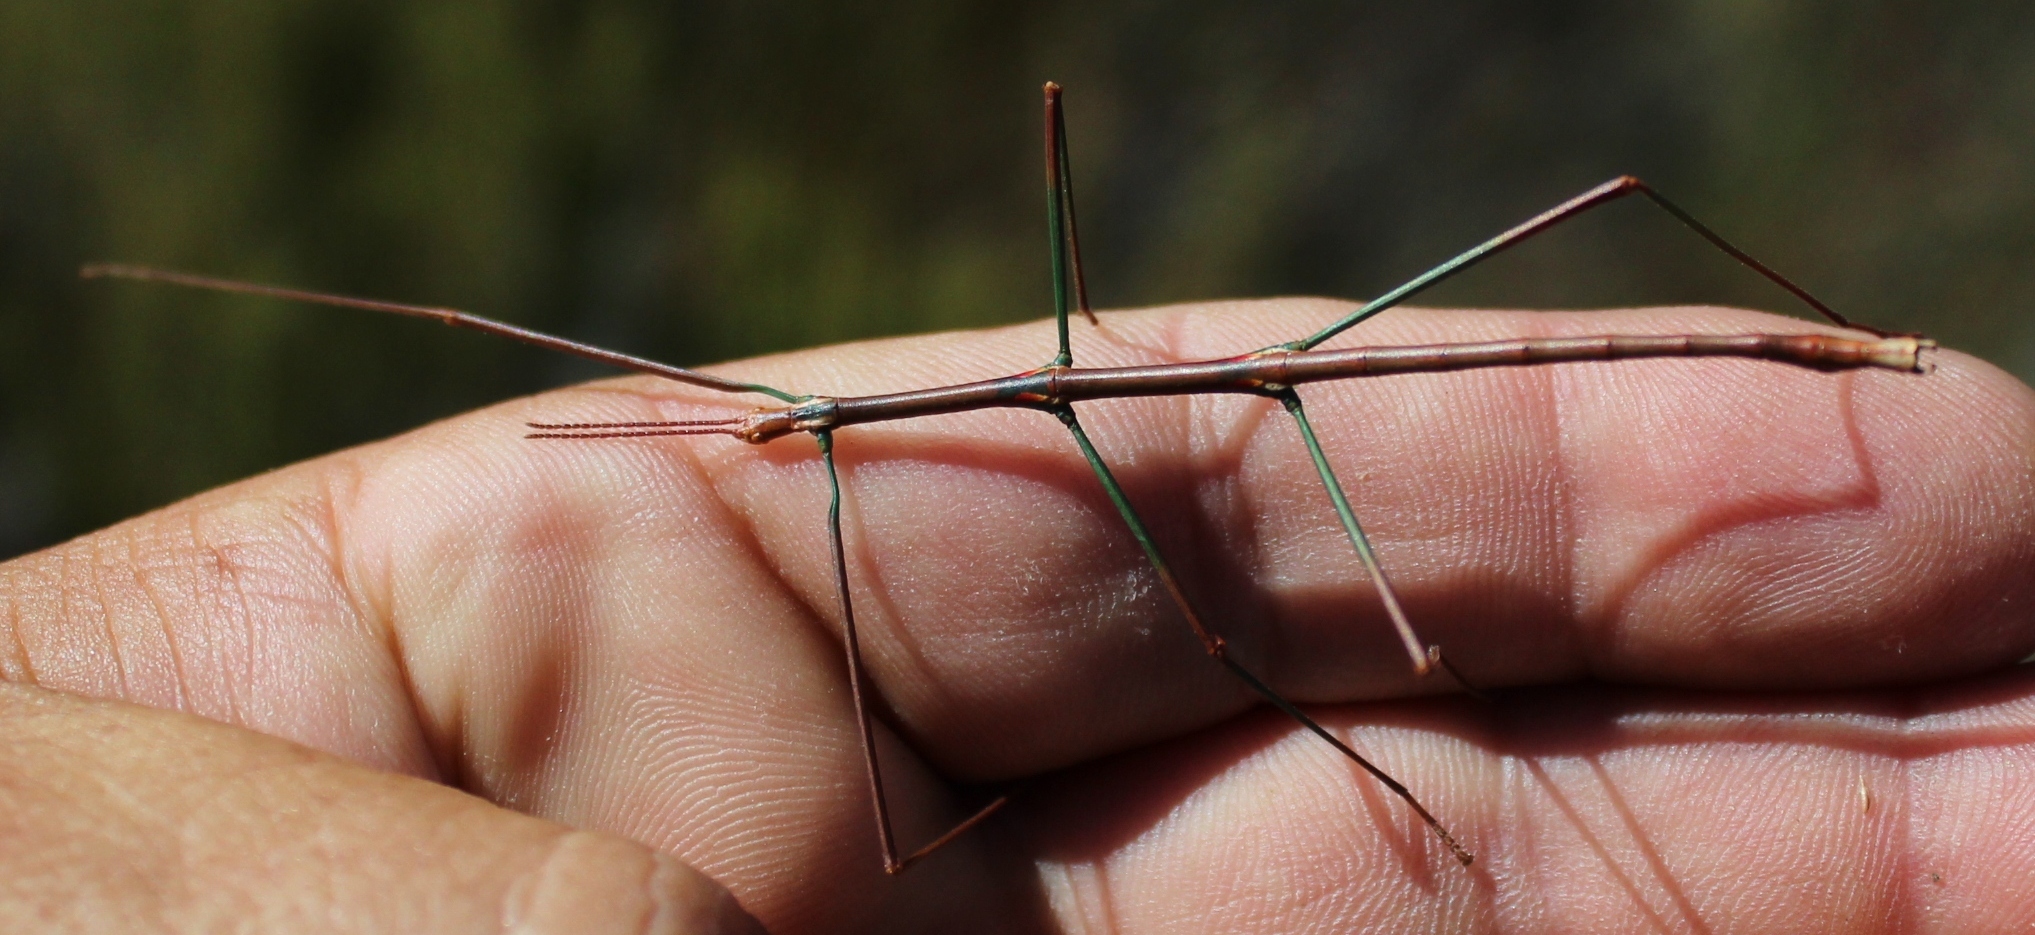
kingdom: Animalia
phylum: Arthropoda
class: Insecta
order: Phasmida
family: Bacillidae
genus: Phalces
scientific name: Phalces brevis
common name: Cape stick insect
